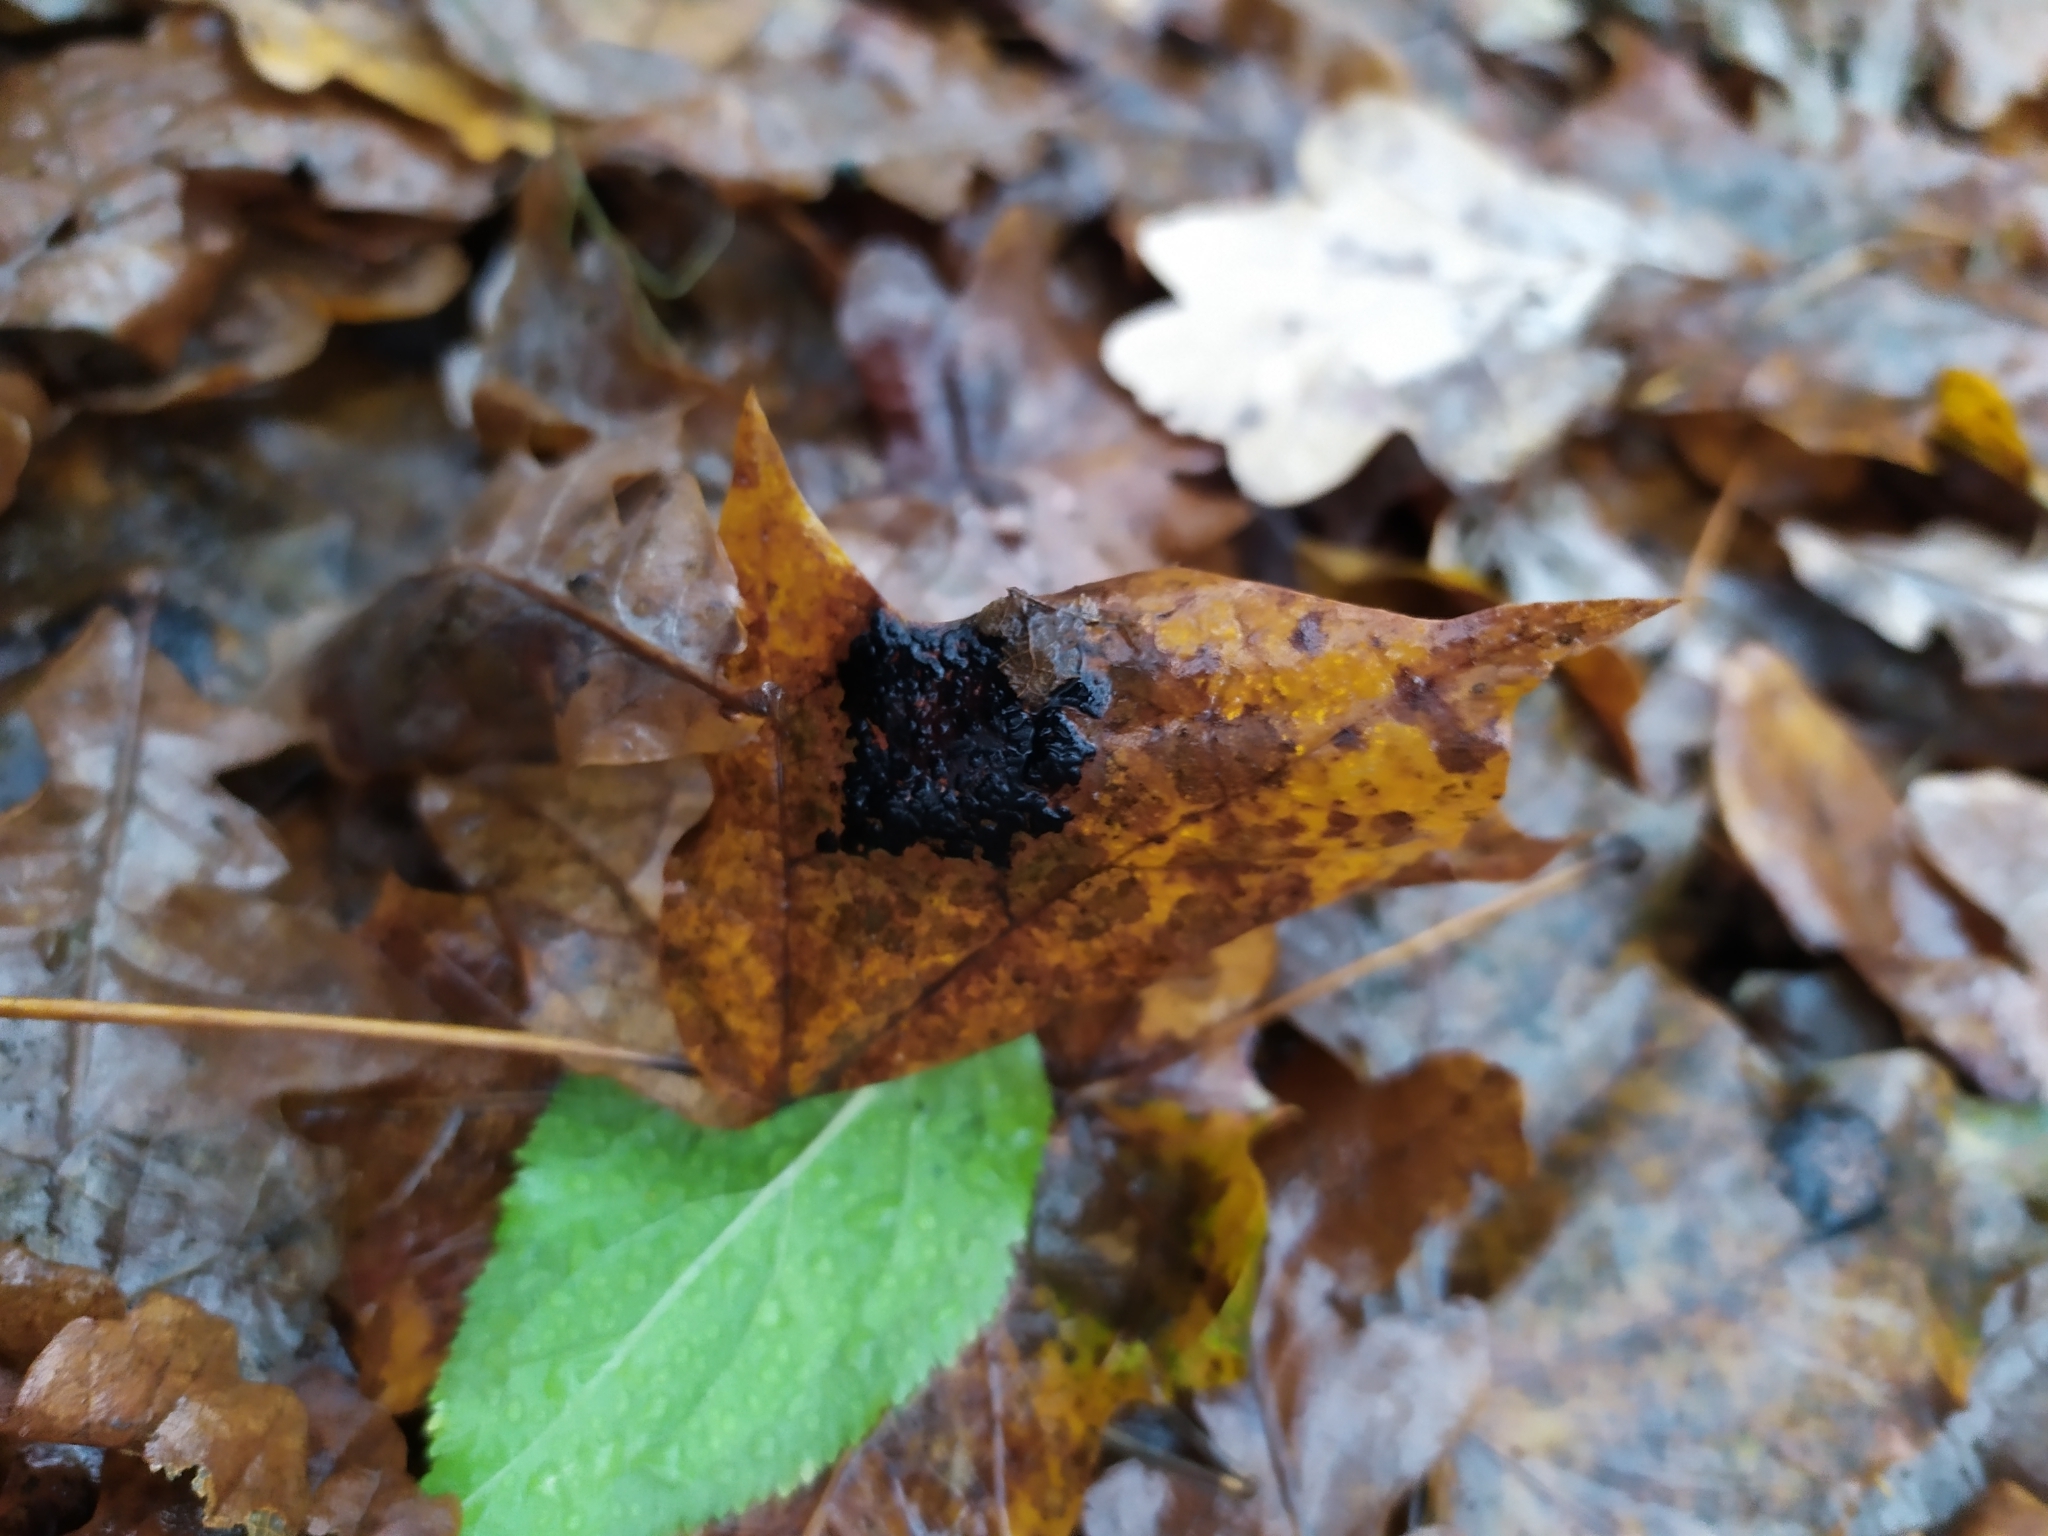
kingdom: Fungi
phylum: Ascomycota
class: Leotiomycetes
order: Rhytismatales
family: Rhytismataceae
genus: Rhytisma
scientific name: Rhytisma acerinum
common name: European tar spot
